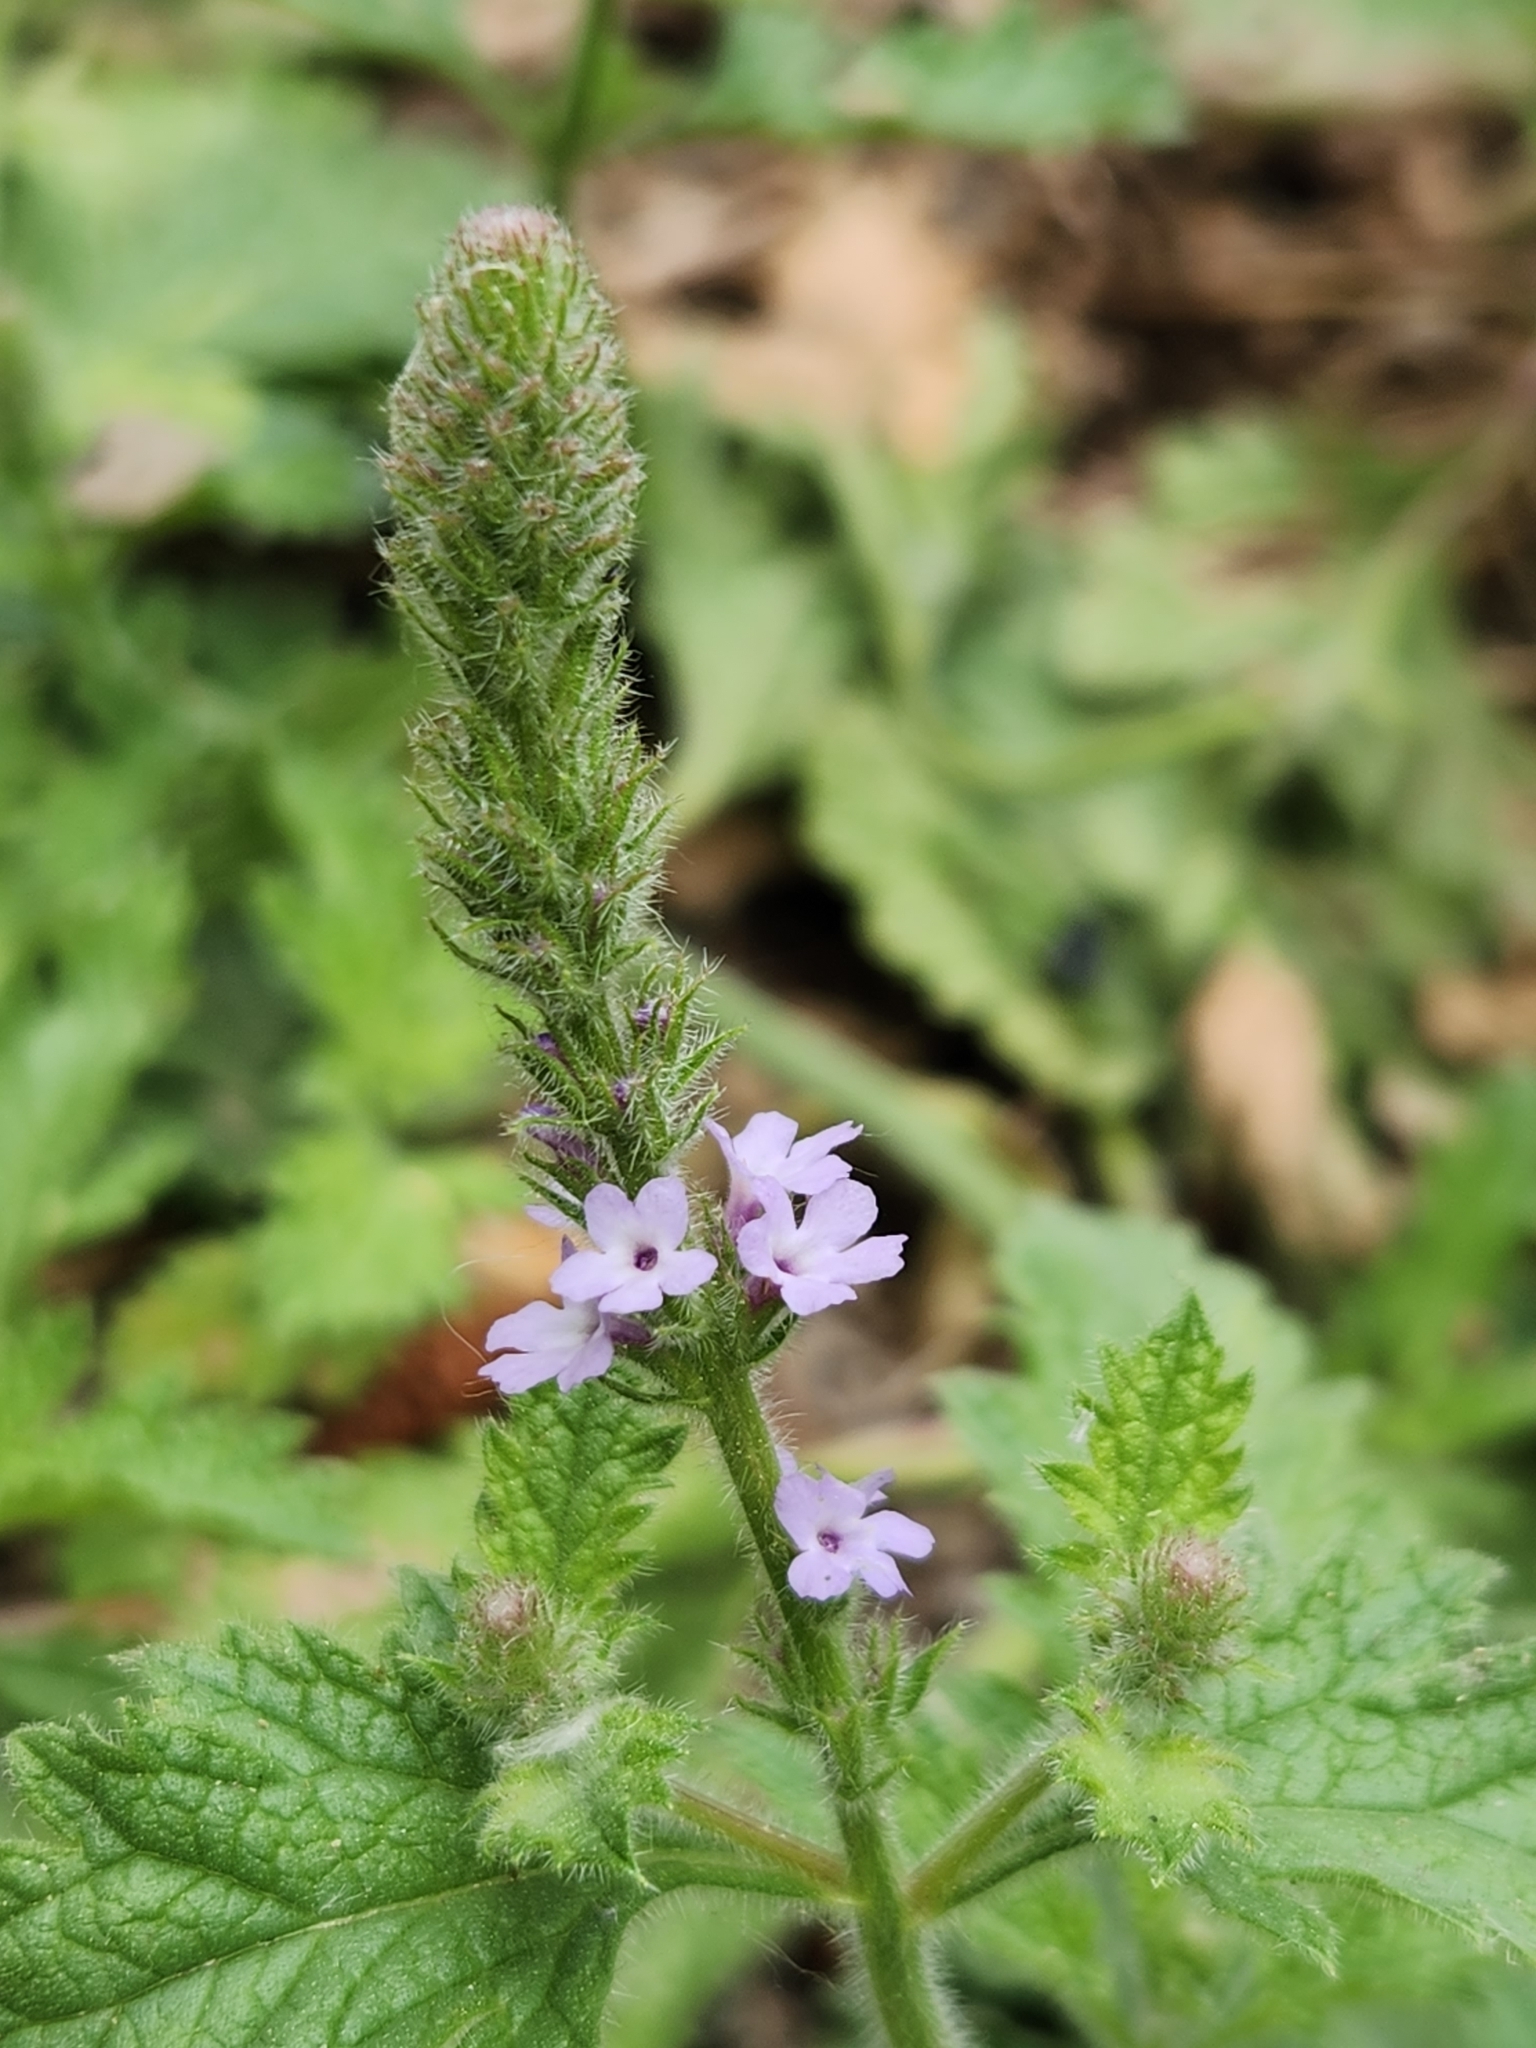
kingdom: Plantae
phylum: Tracheophyta
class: Magnoliopsida
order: Lamiales
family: Verbenaceae
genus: Verbena
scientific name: Verbena lasiostachys
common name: Vervain
